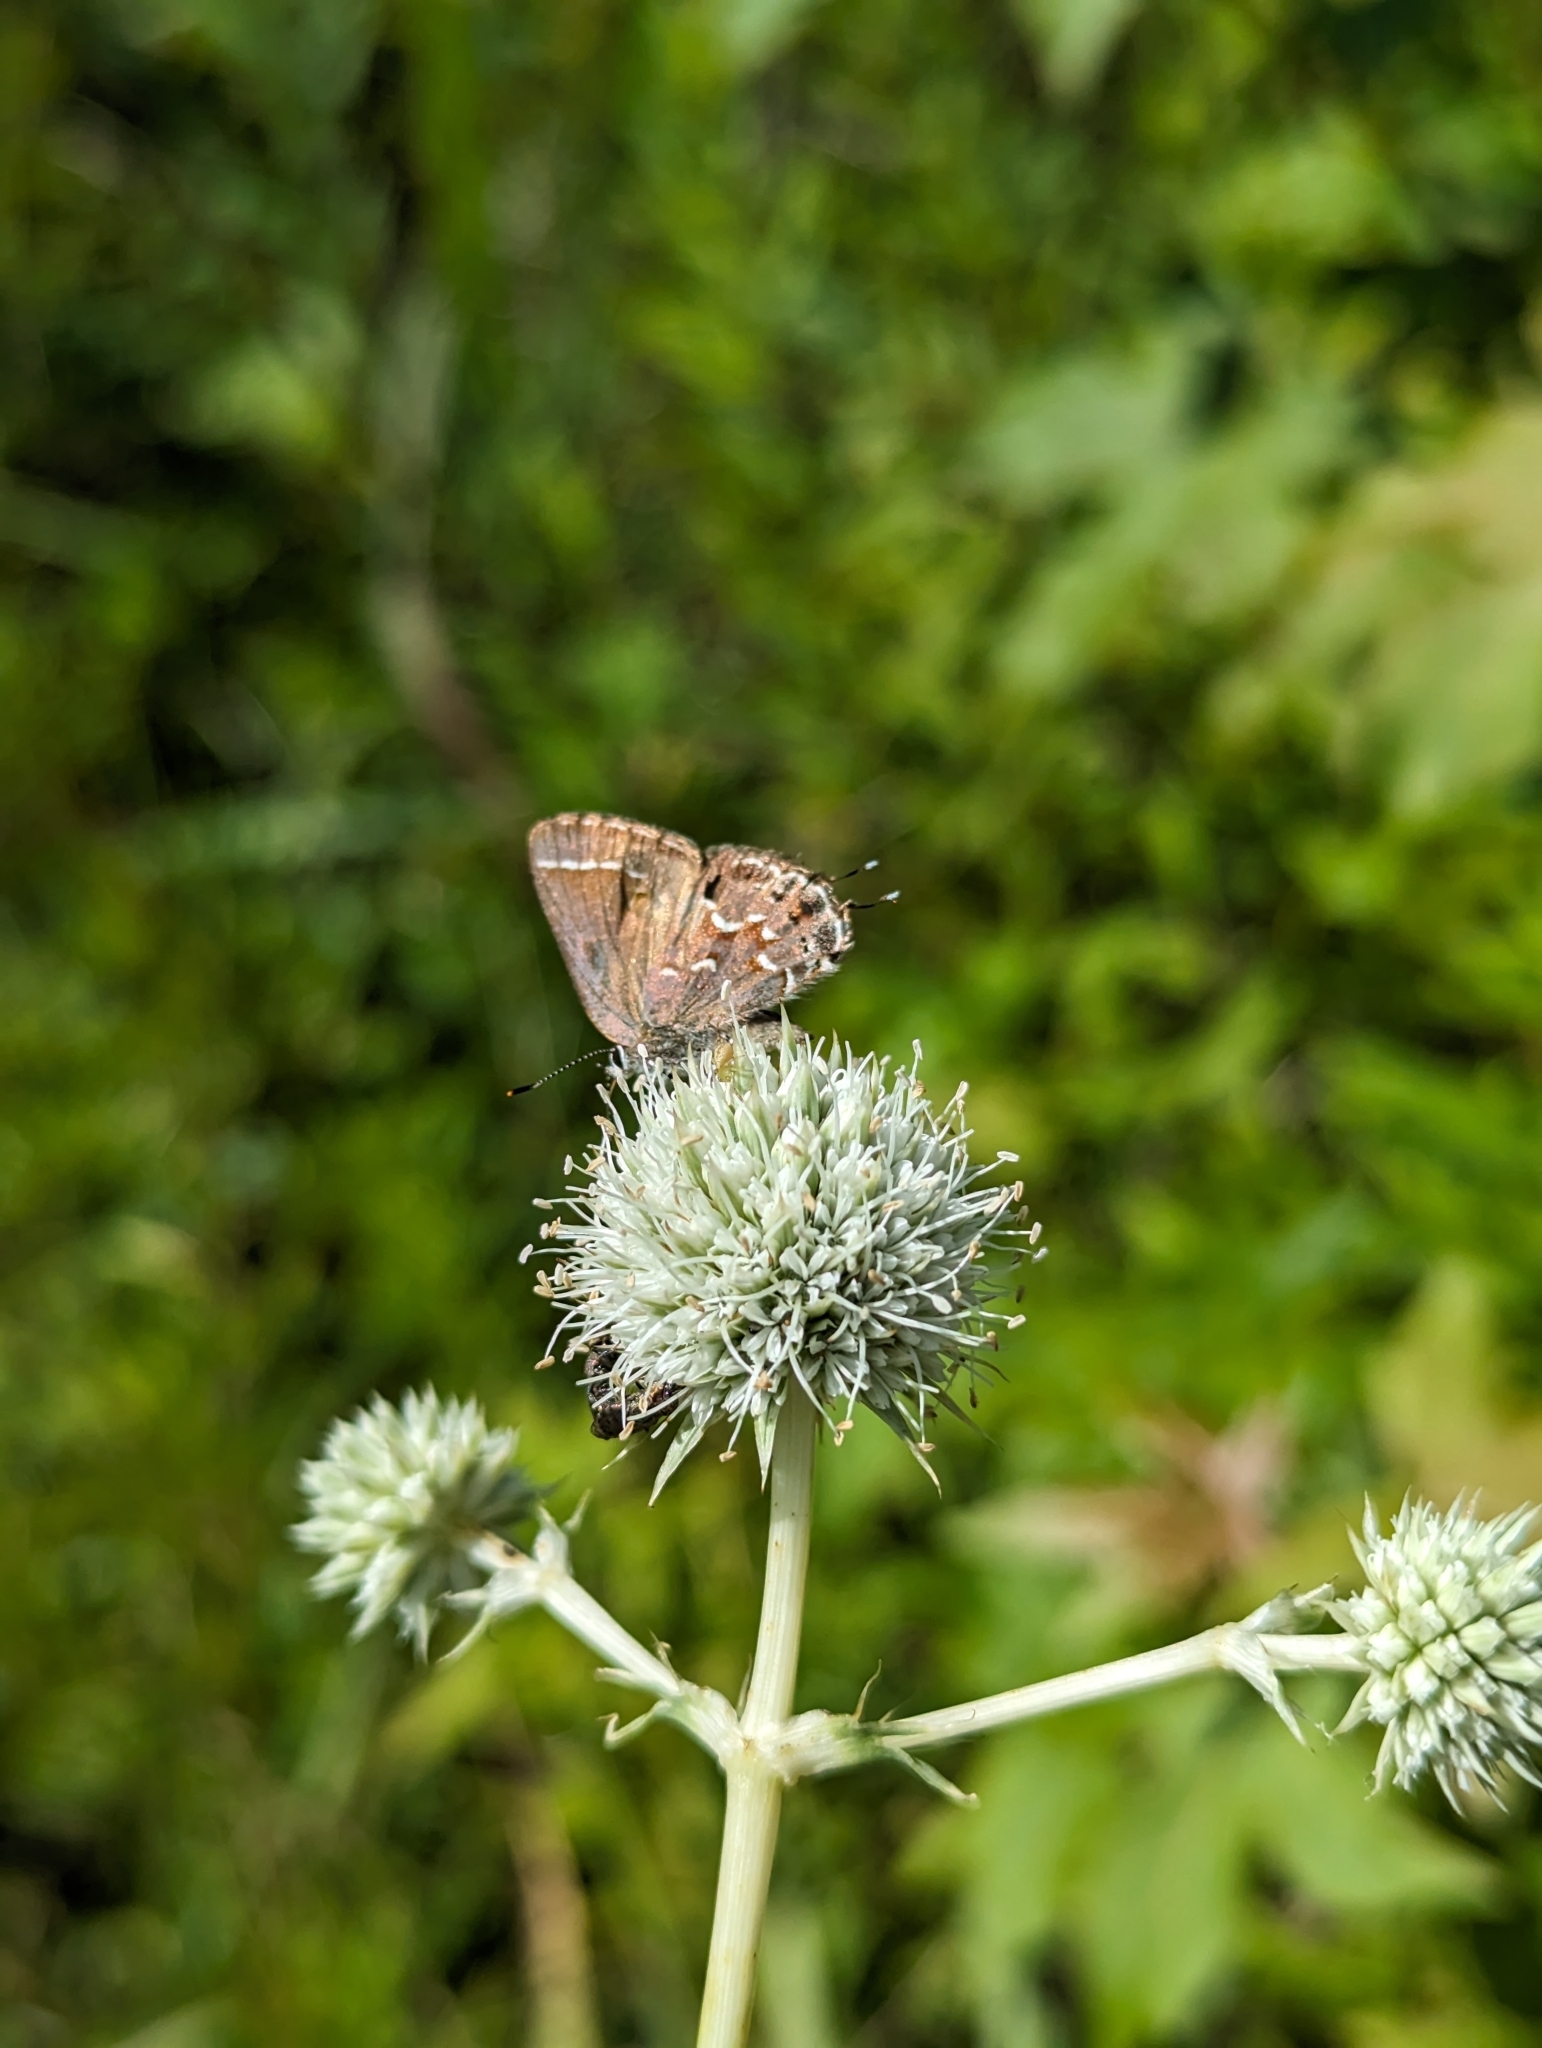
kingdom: Animalia
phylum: Arthropoda
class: Insecta
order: Lepidoptera
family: Lycaenidae
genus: Mitoura
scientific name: Mitoura gryneus
